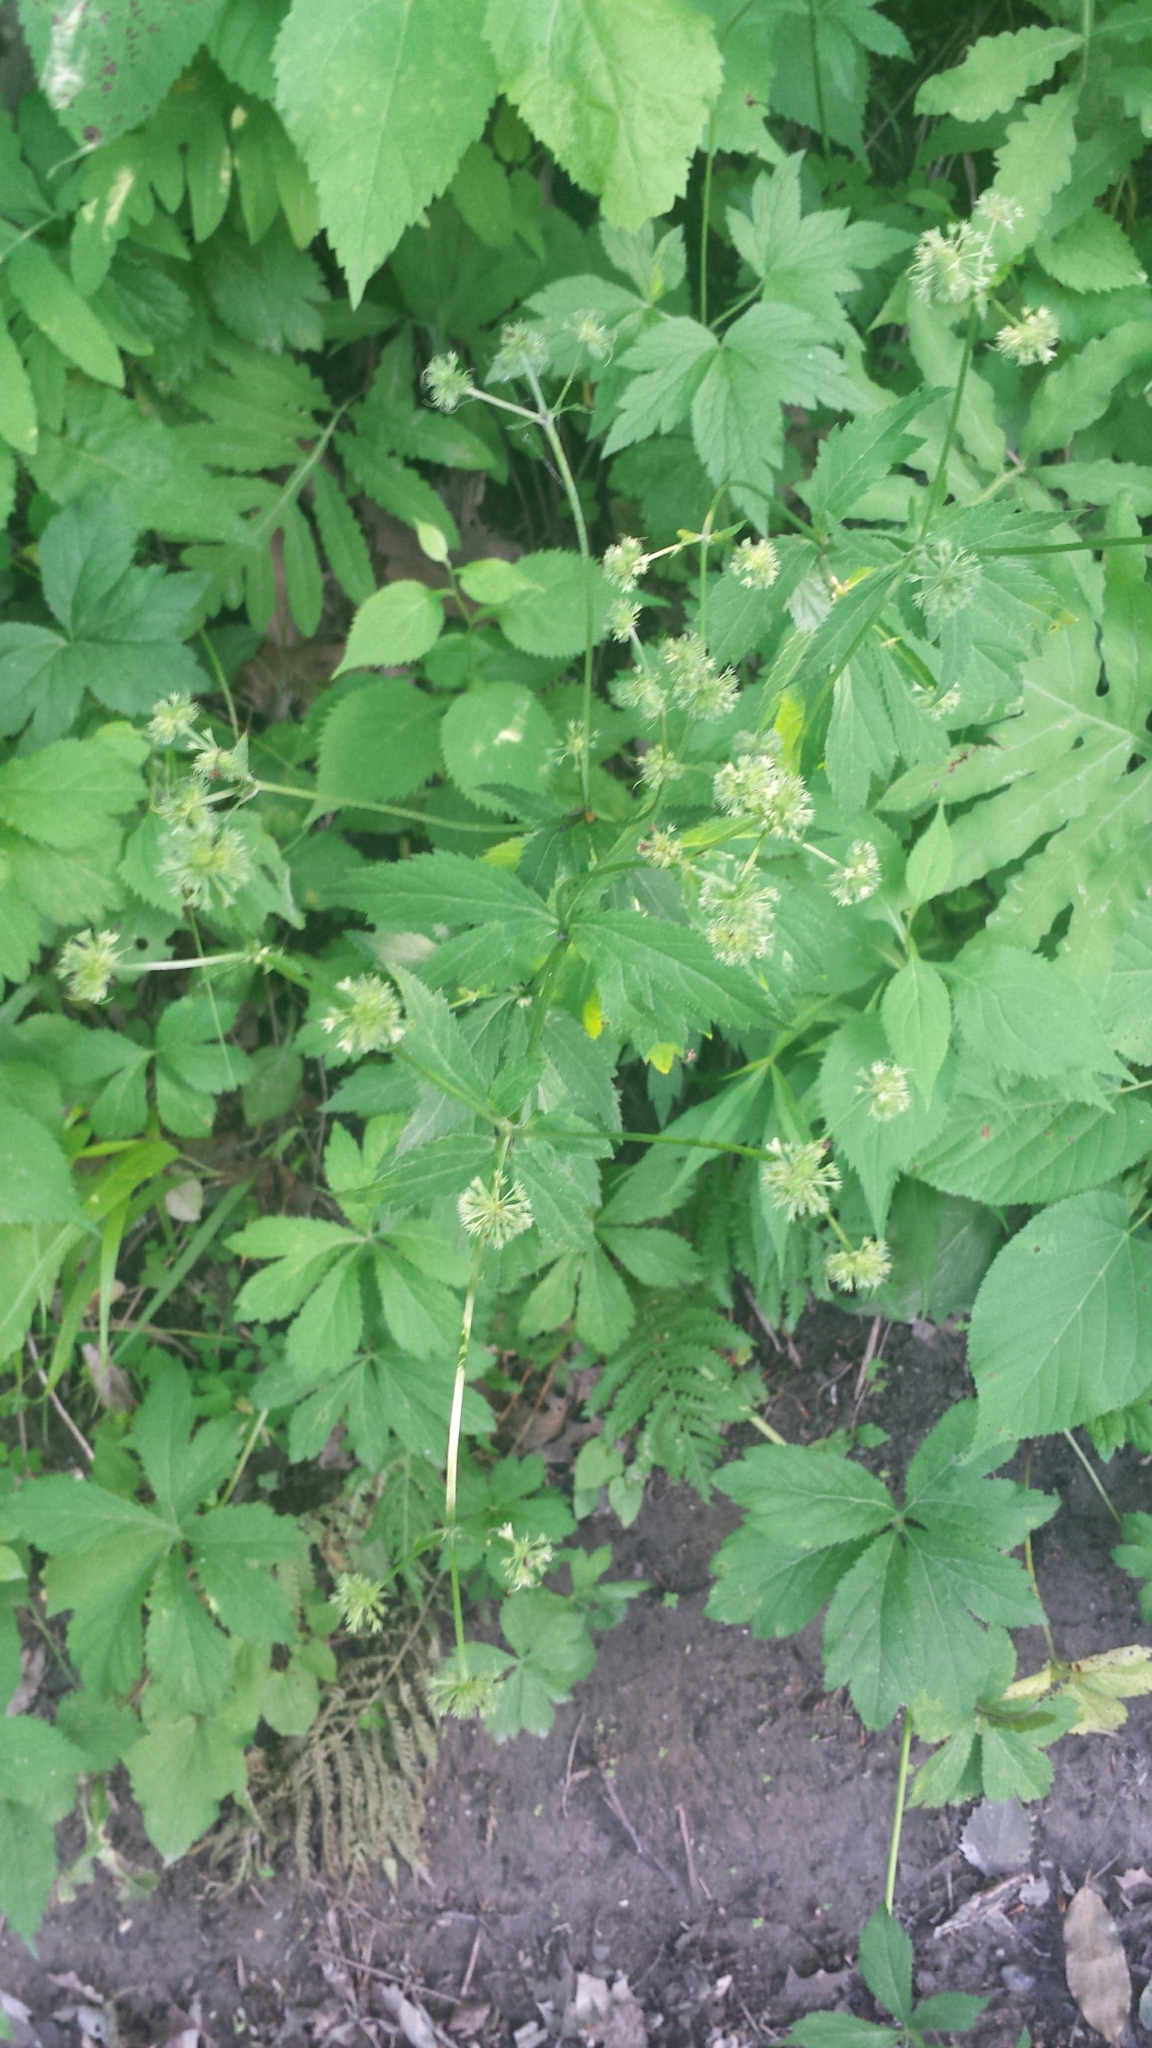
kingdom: Plantae
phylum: Tracheophyta
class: Magnoliopsida
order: Apiales
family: Apiaceae
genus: Sanicula
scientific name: Sanicula marilandica
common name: Black snakeroot
